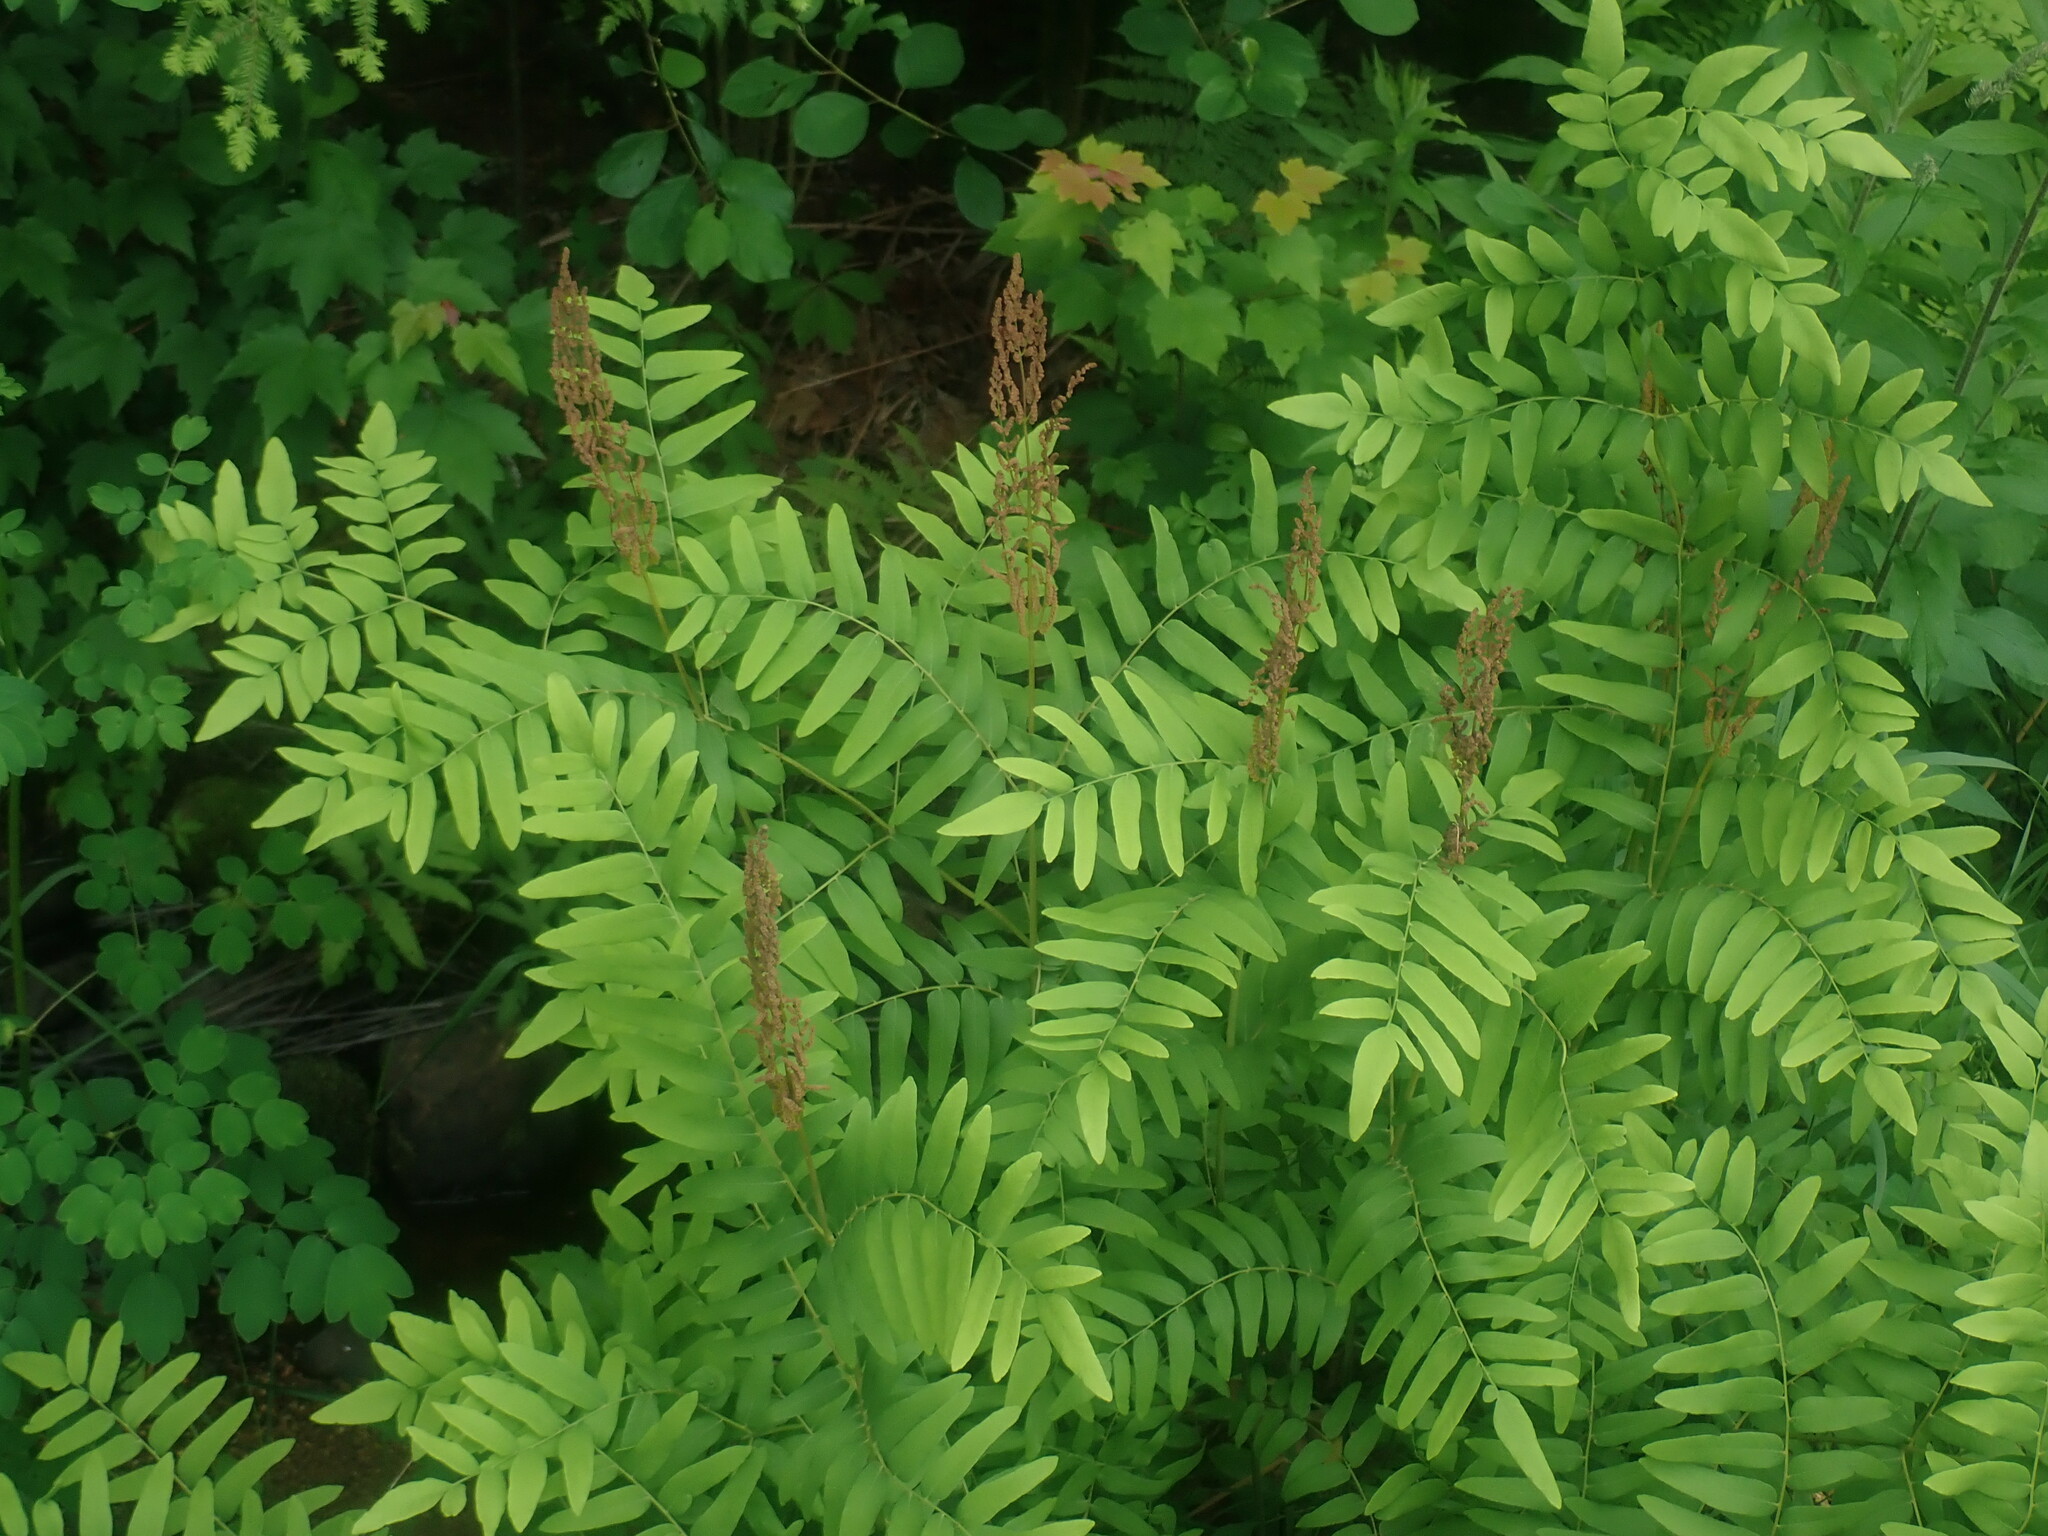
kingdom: Plantae
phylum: Tracheophyta
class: Polypodiopsida
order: Osmundales
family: Osmundaceae
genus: Osmunda
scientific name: Osmunda spectabilis
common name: American royal fern
